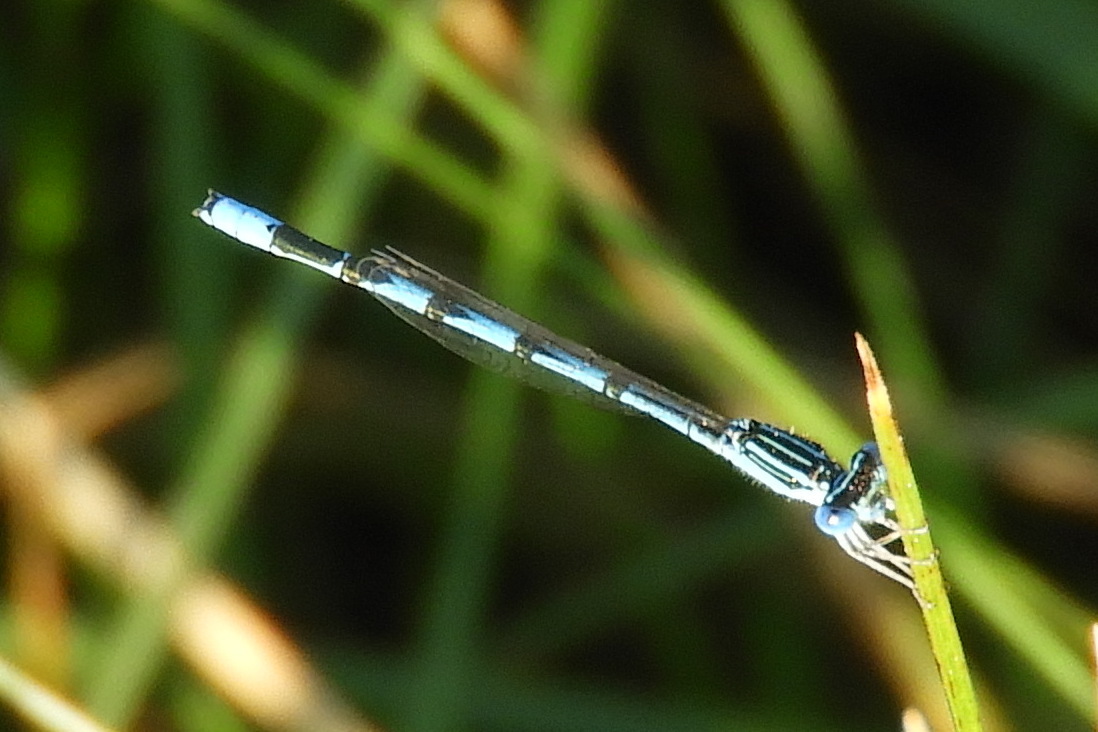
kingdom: Animalia
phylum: Arthropoda
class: Insecta
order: Odonata
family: Coenagrionidae
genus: Enallagma
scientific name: Enallagma basidens
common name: Double-striped bluet
